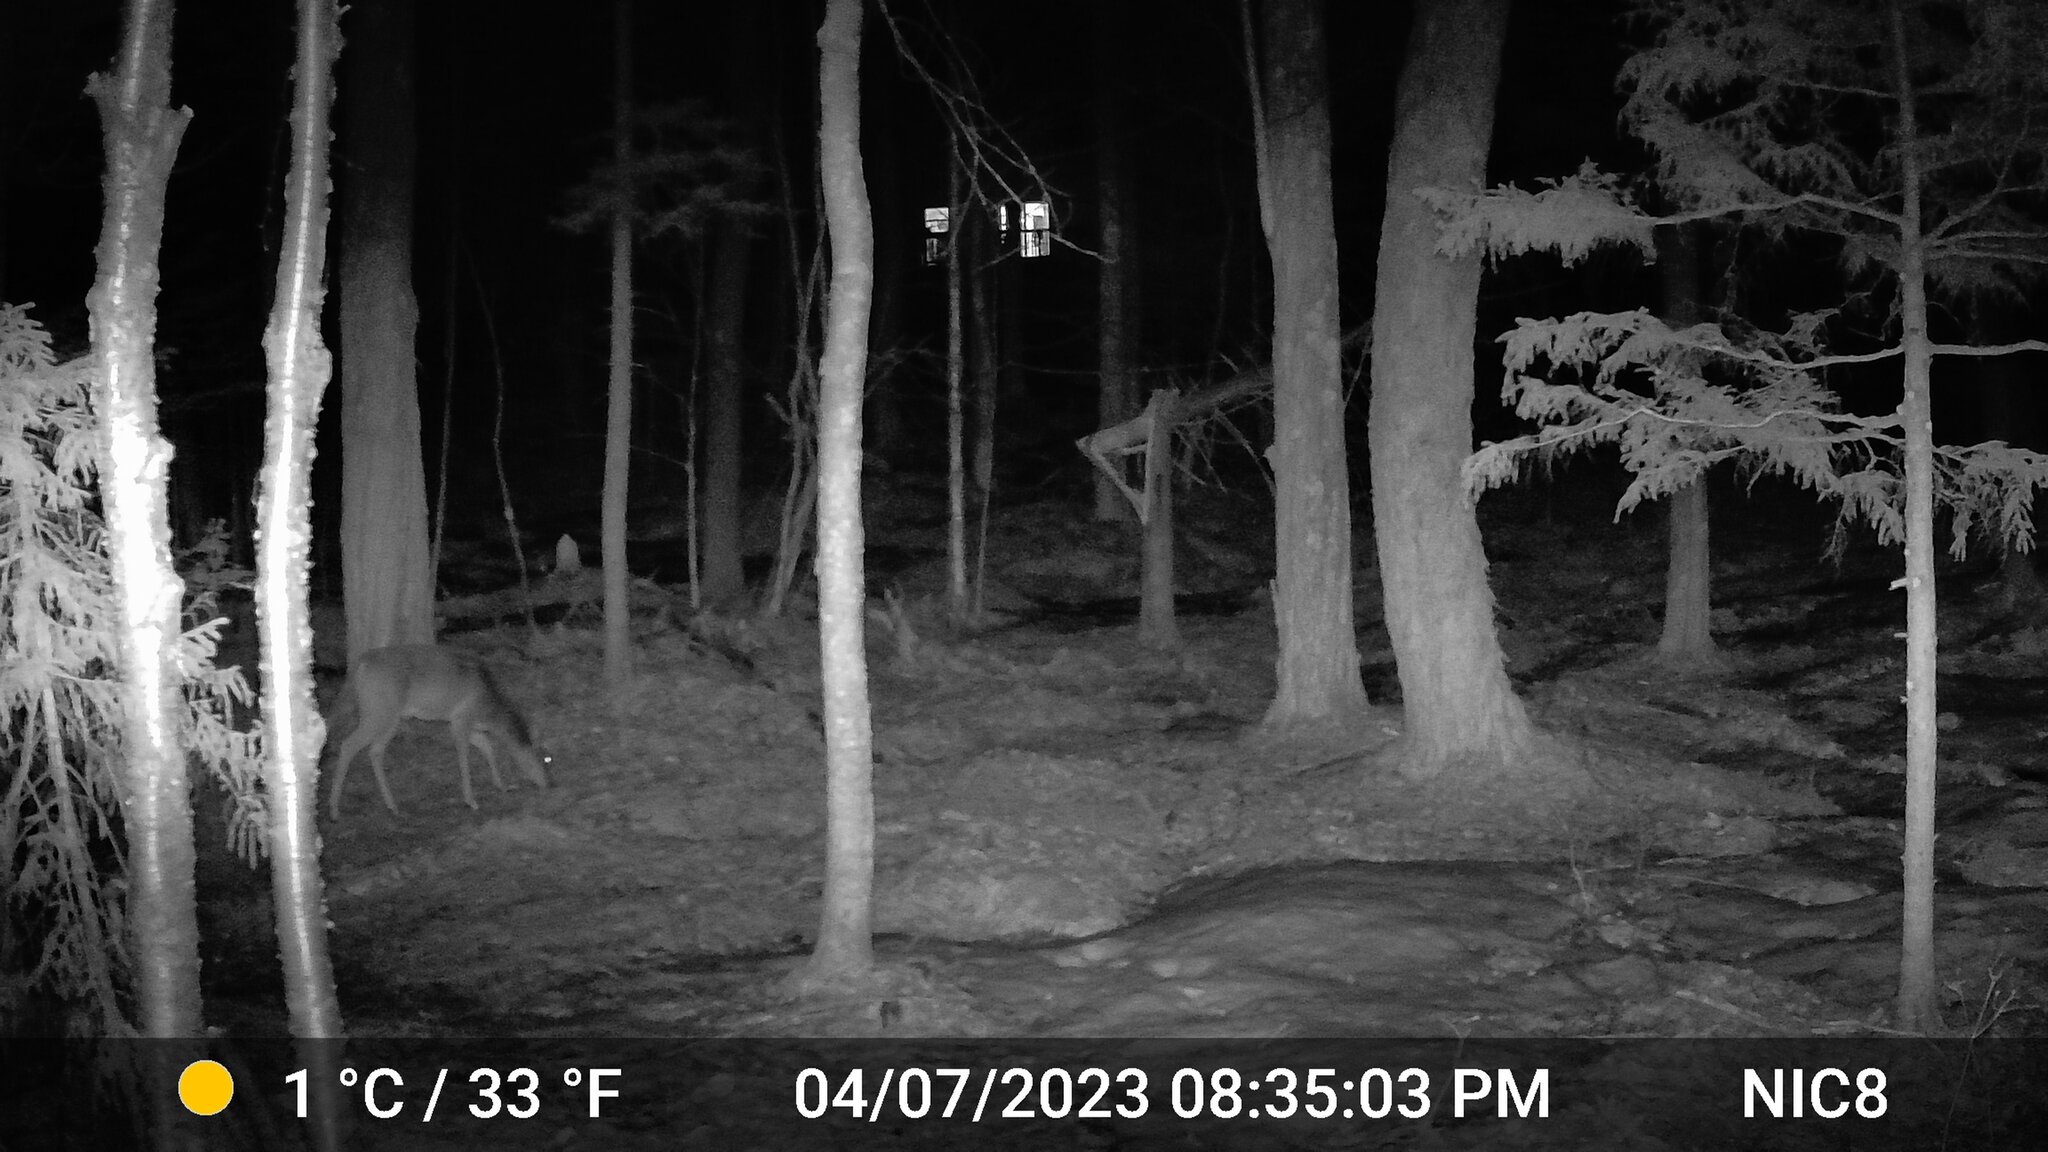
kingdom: Animalia
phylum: Chordata
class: Mammalia
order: Artiodactyla
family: Cervidae
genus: Odocoileus
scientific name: Odocoileus virginianus
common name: White-tailed deer
